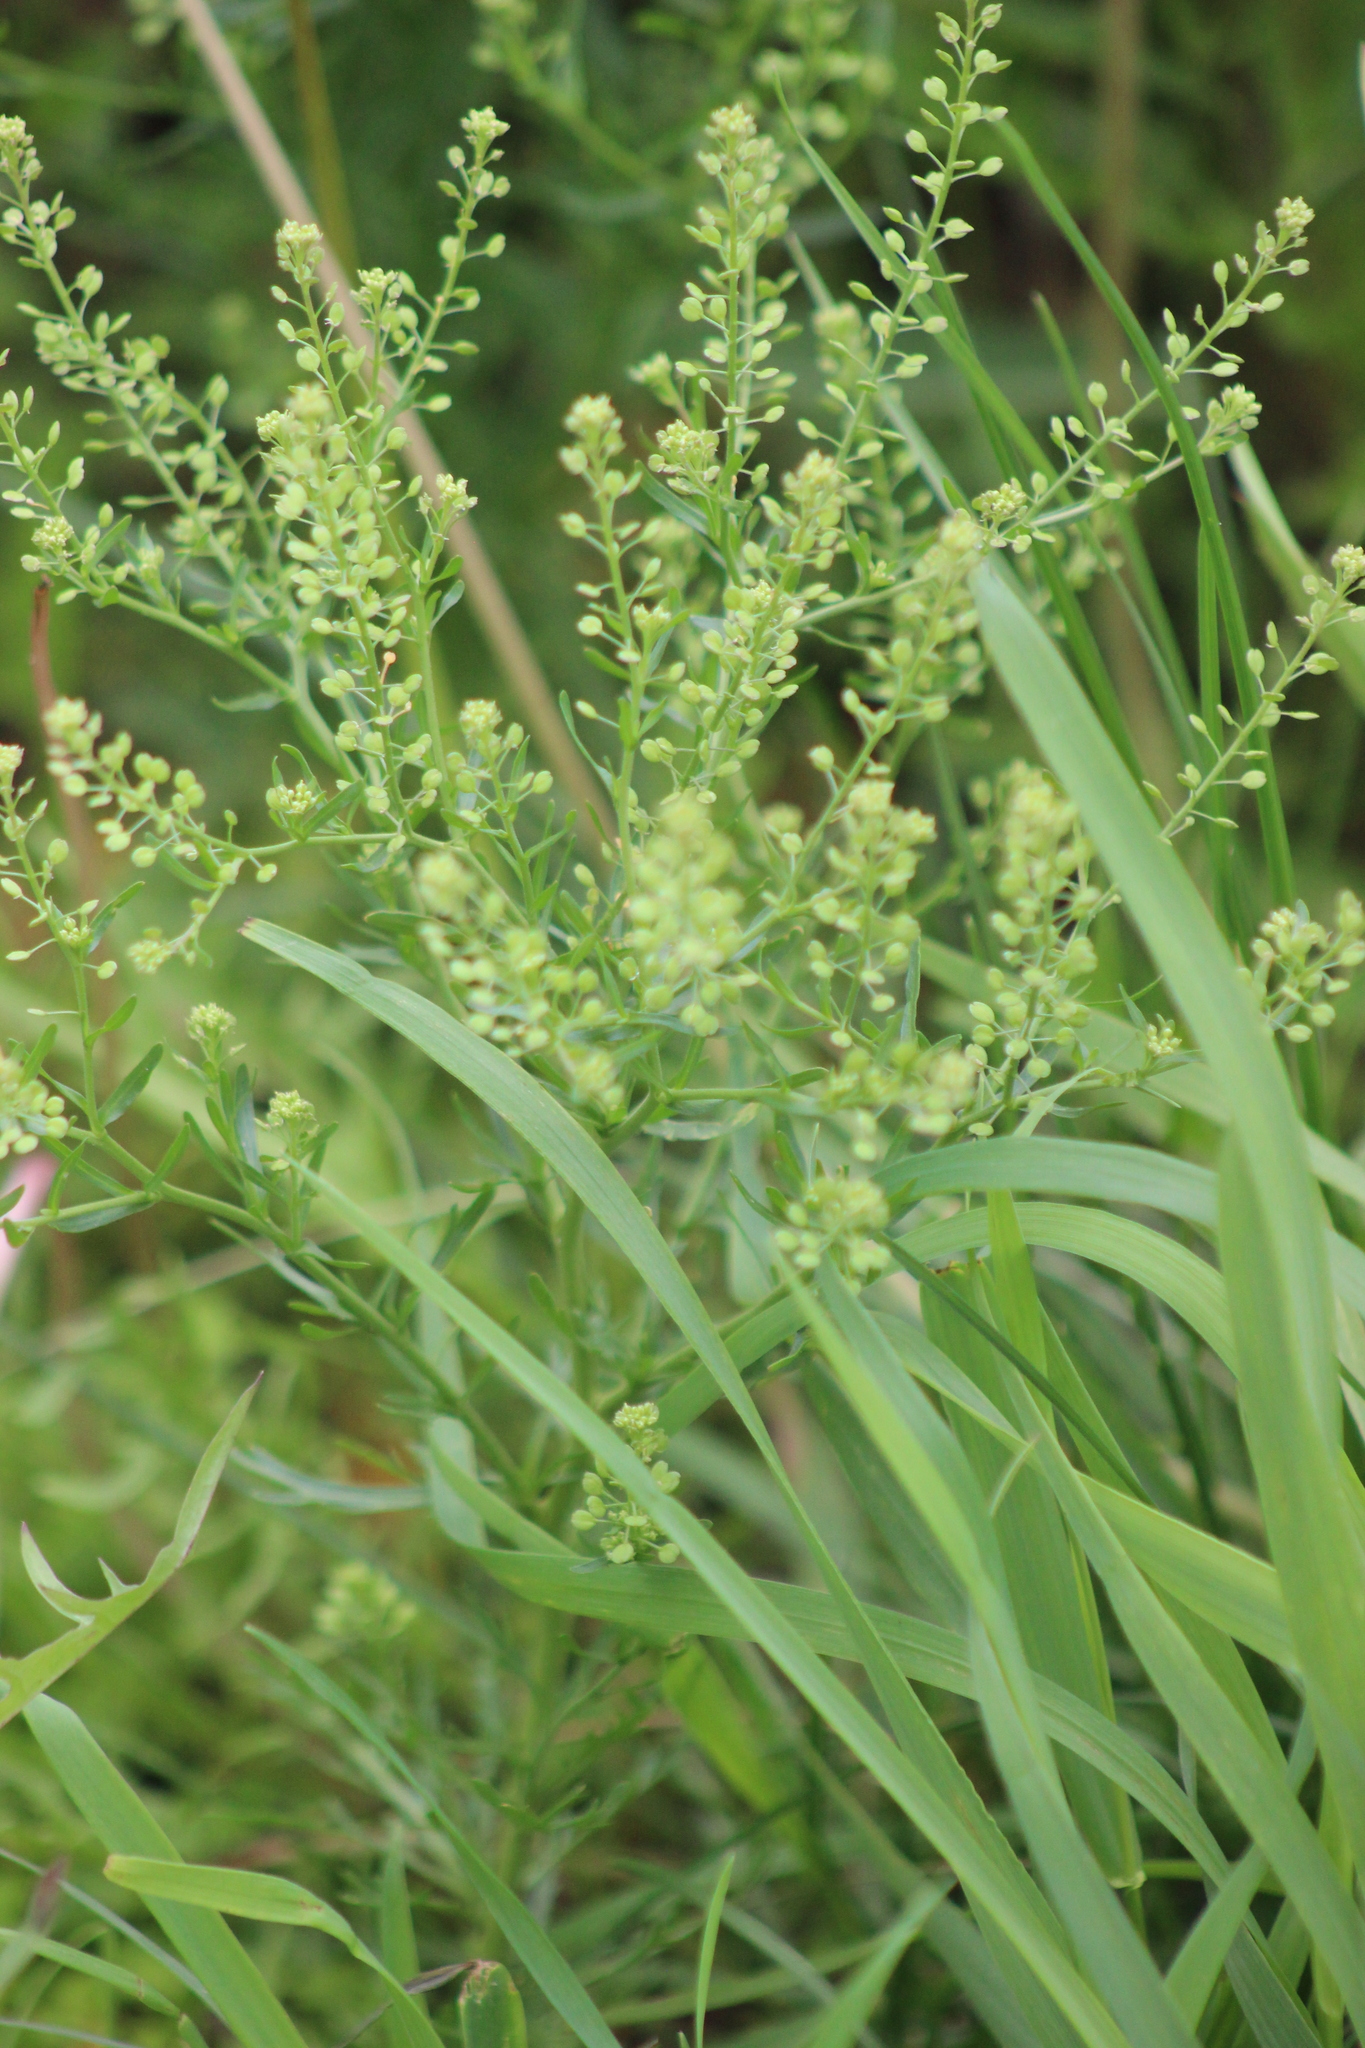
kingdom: Plantae
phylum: Tracheophyta
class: Magnoliopsida
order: Brassicales
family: Brassicaceae
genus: Lepidium
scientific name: Lepidium densiflorum
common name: Miner's pepperwort
